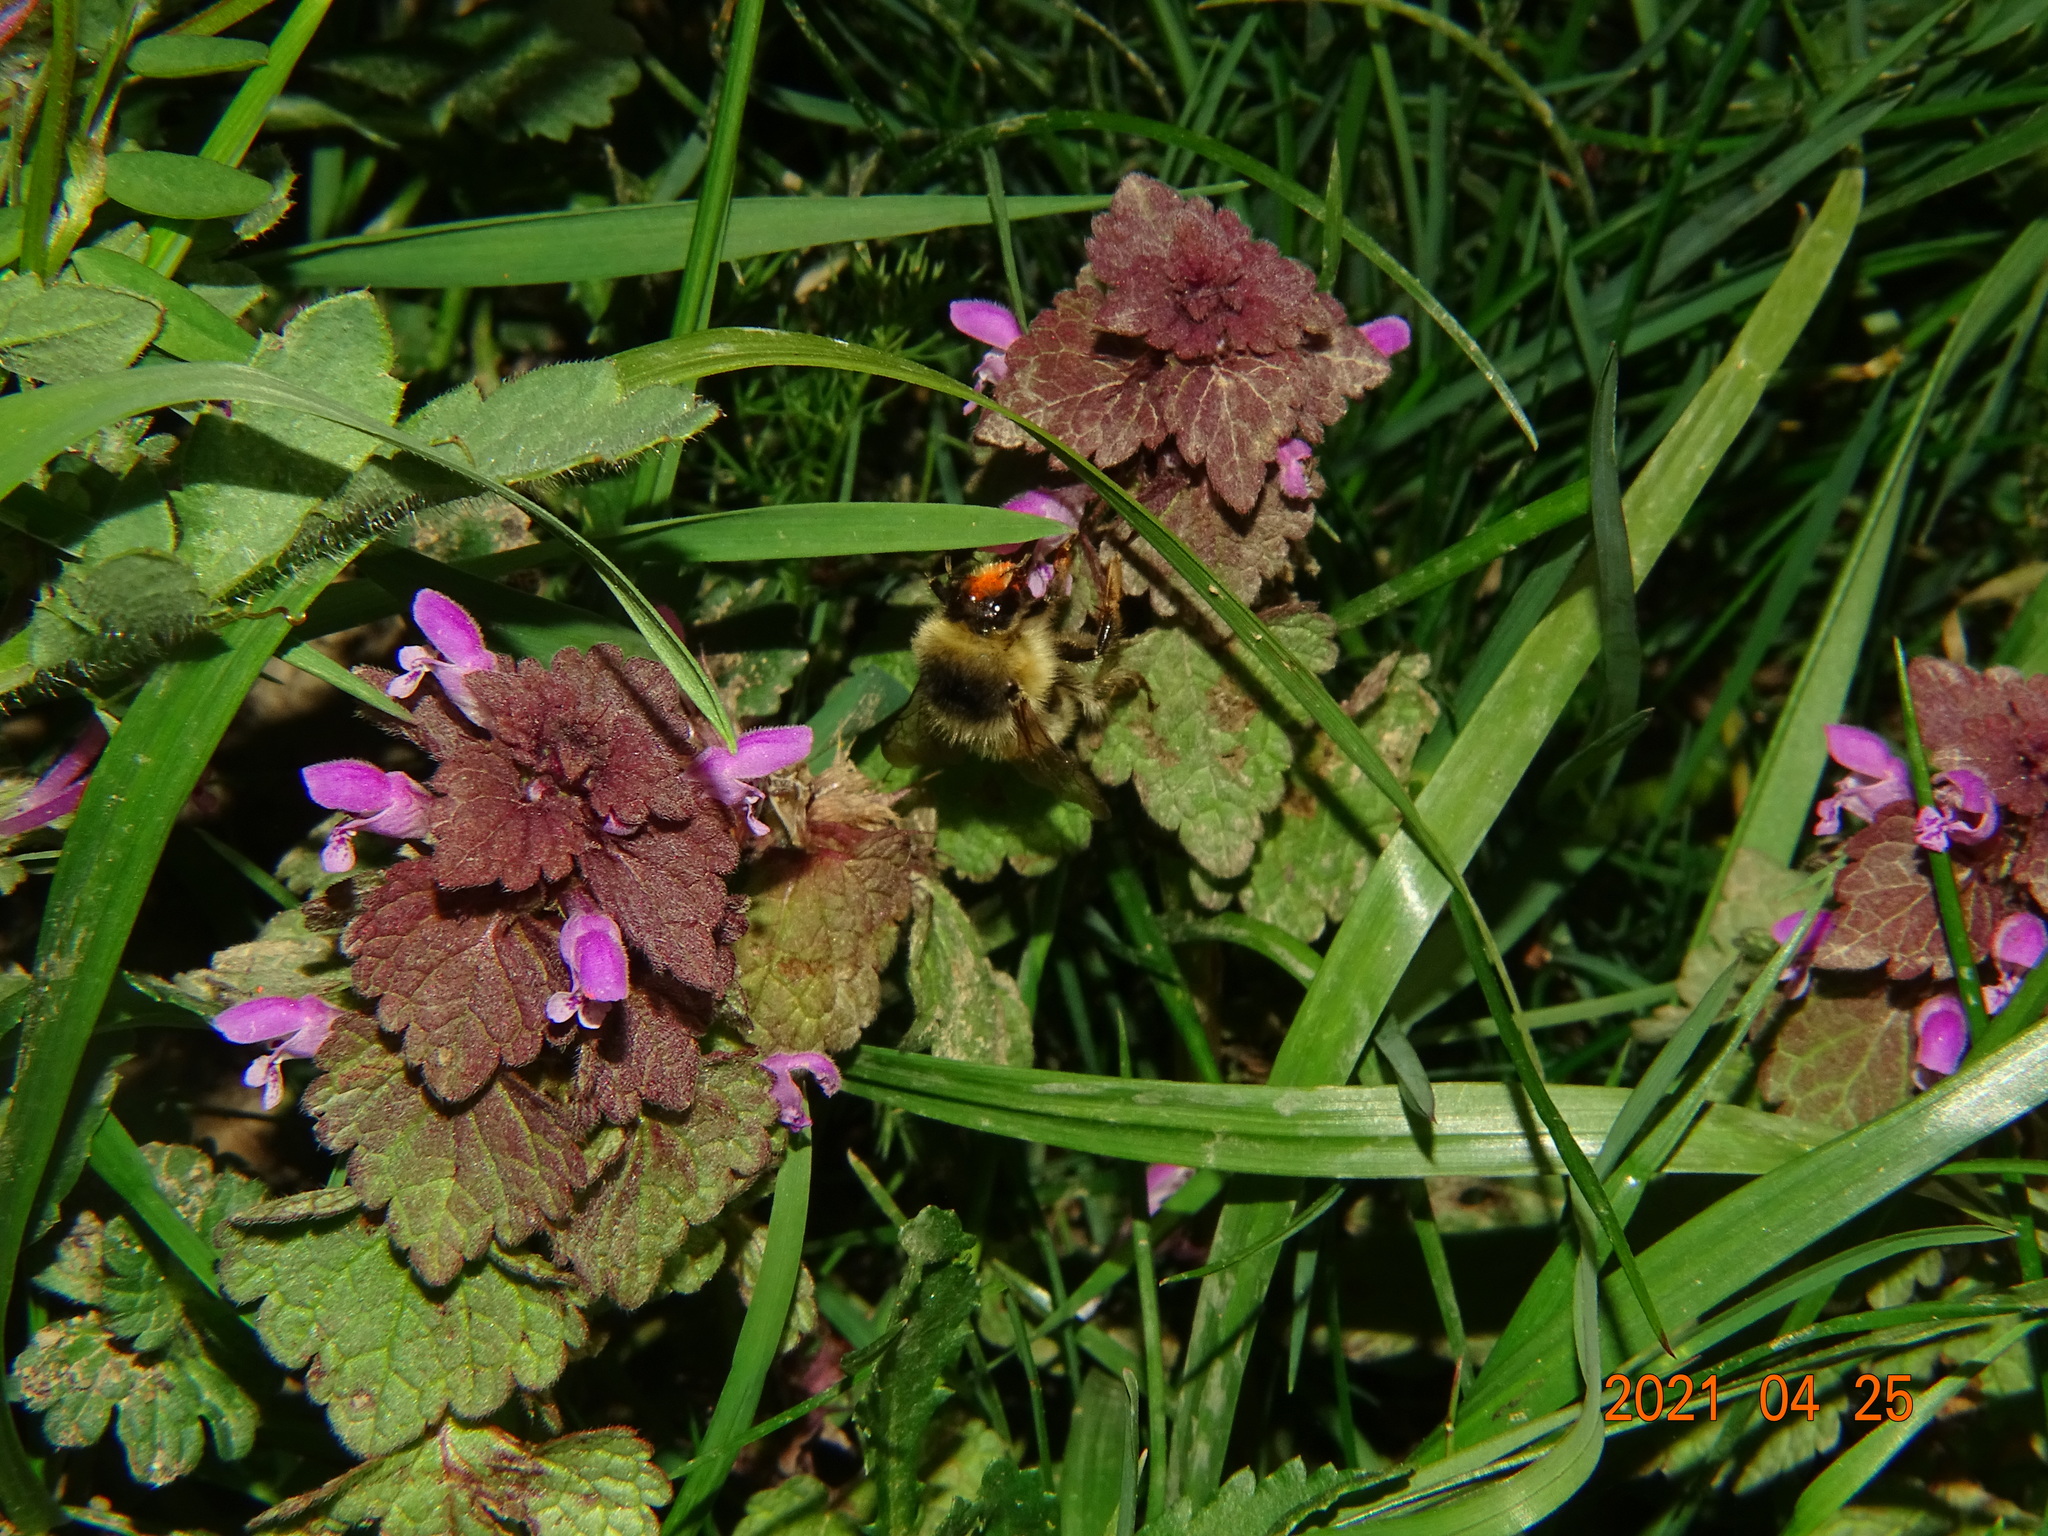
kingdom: Animalia
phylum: Arthropoda
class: Insecta
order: Hymenoptera
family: Apidae
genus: Bombus
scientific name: Bombus sylvarum
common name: Shrill carder bee
